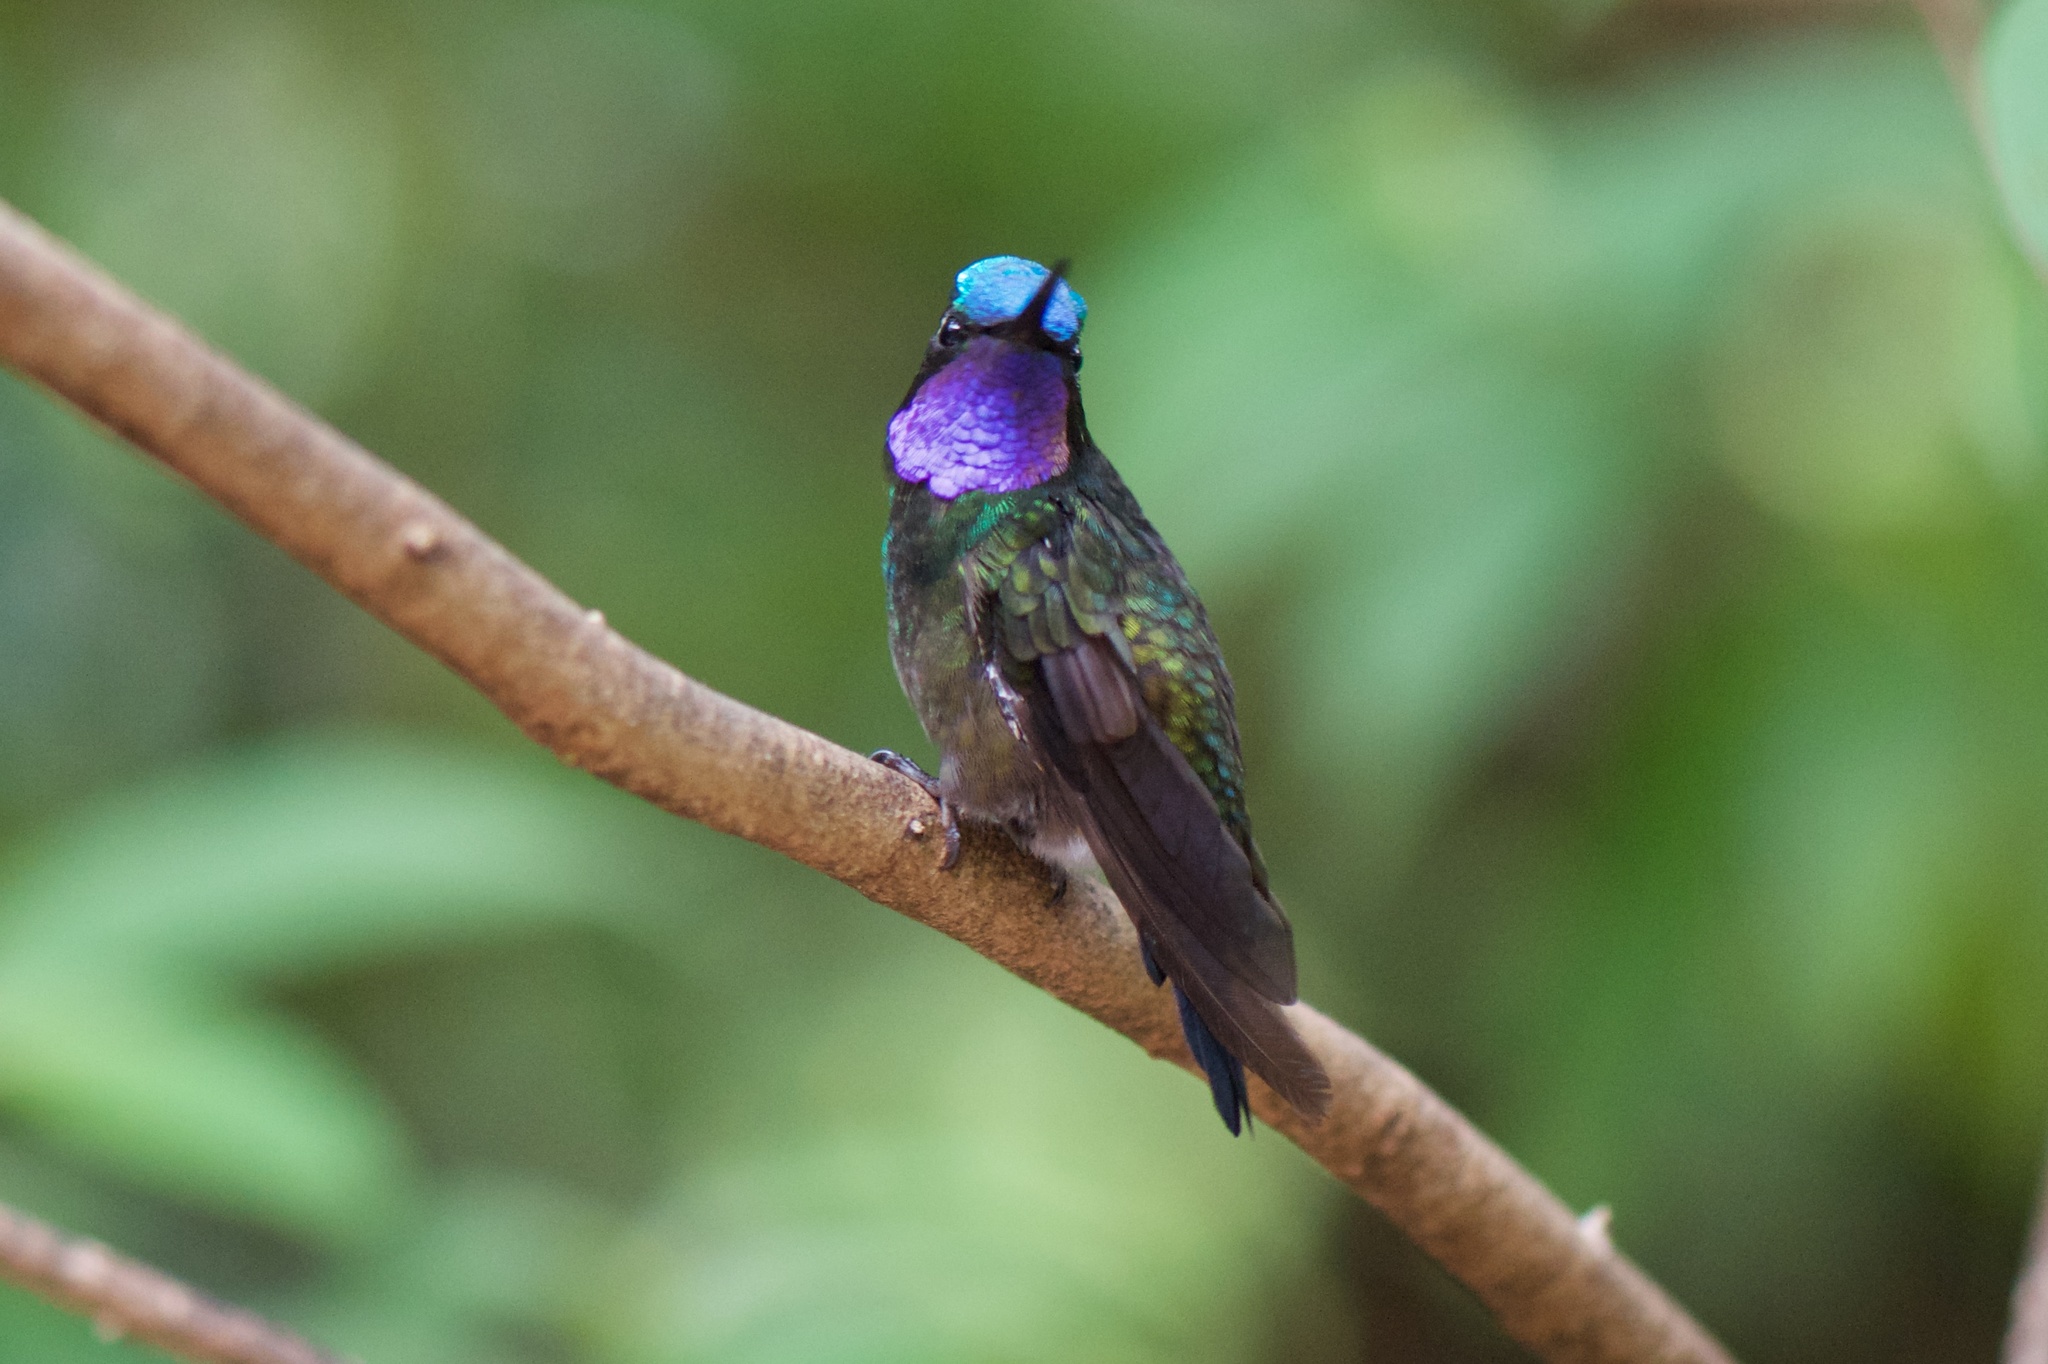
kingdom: Animalia
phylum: Chordata
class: Aves
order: Apodiformes
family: Trochilidae
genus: Lampornis
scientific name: Lampornis calolaemus
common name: Purple-throated mountain-gem
